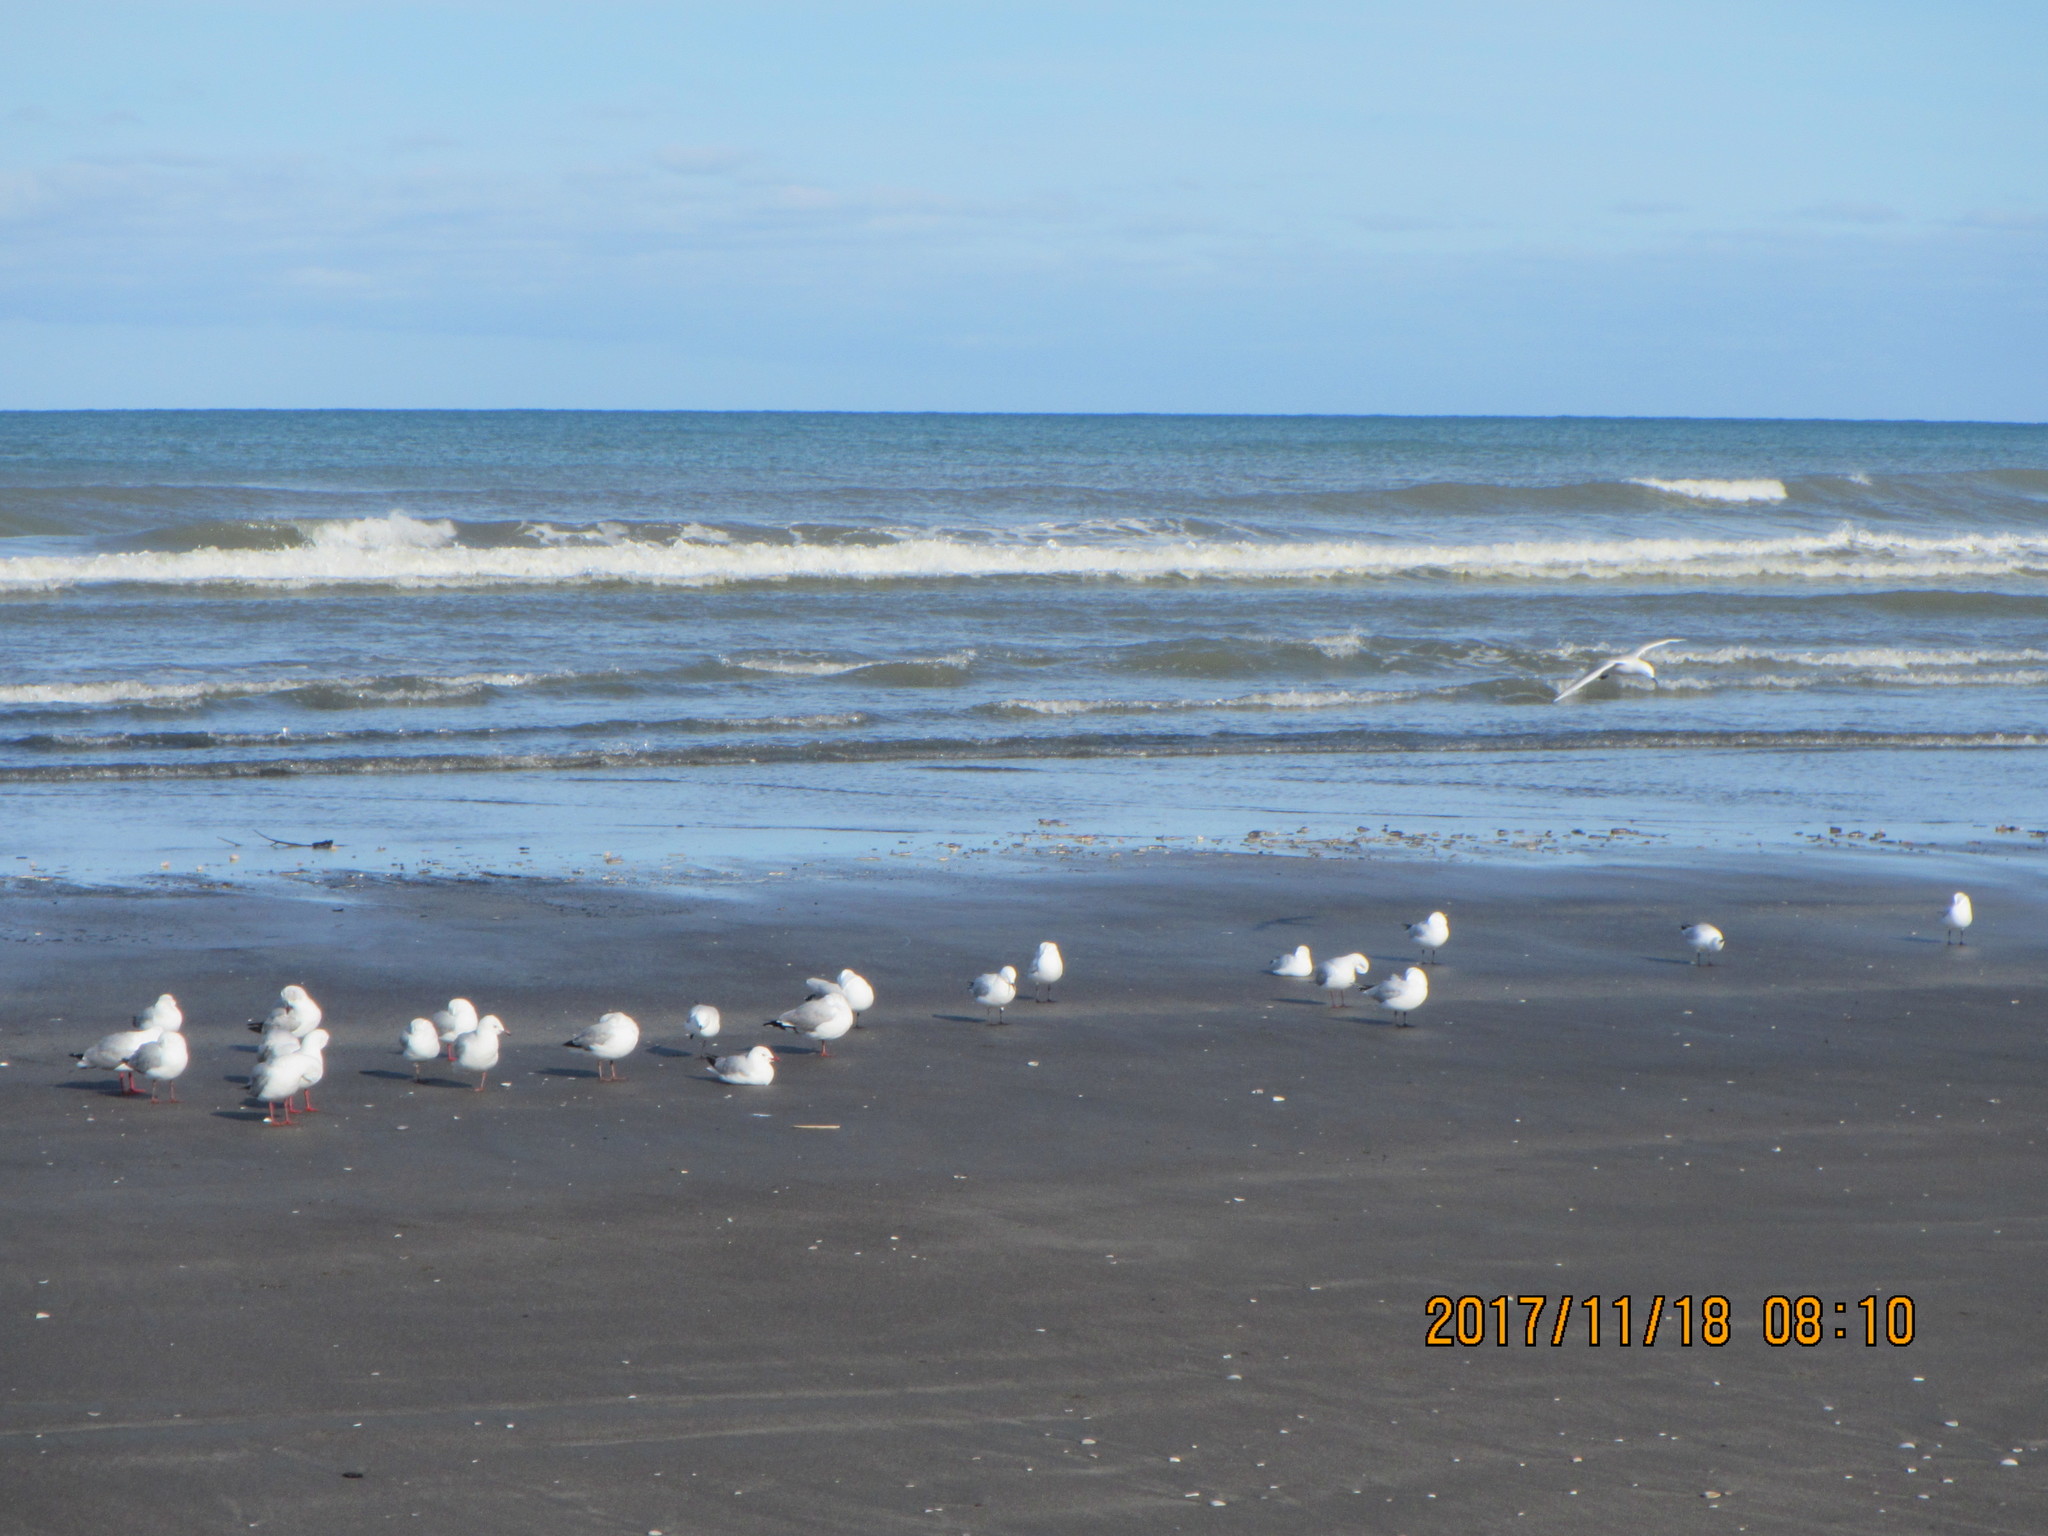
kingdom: Animalia
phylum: Chordata
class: Aves
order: Charadriiformes
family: Laridae
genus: Chroicocephalus
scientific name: Chroicocephalus bulleri
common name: Black-billed gull
